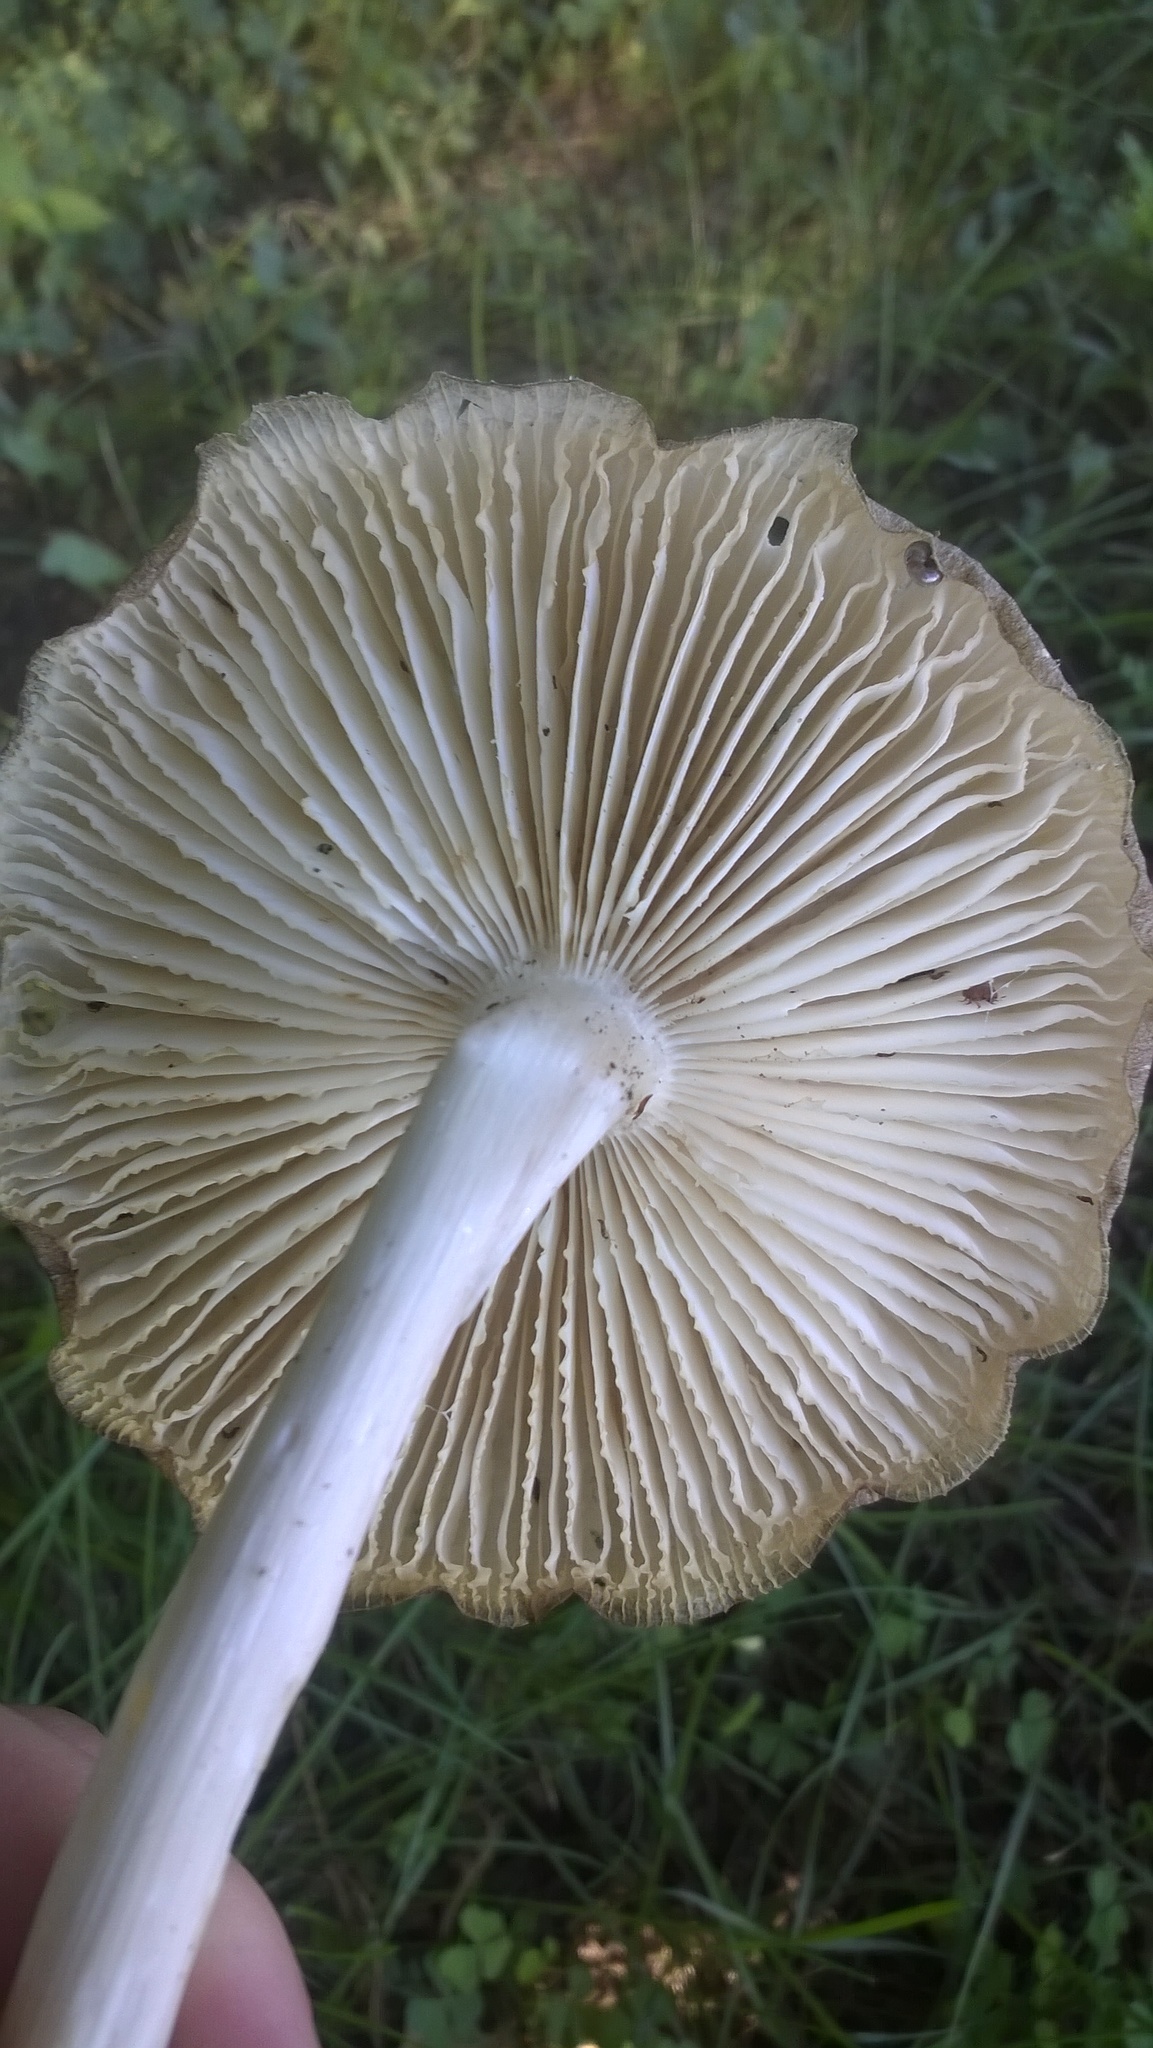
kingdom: Fungi
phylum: Basidiomycota
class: Agaricomycetes
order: Agaricales
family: Tricholomataceae
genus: Megacollybia
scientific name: Megacollybia rodmanii
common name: Eastern american platterful mushroom
